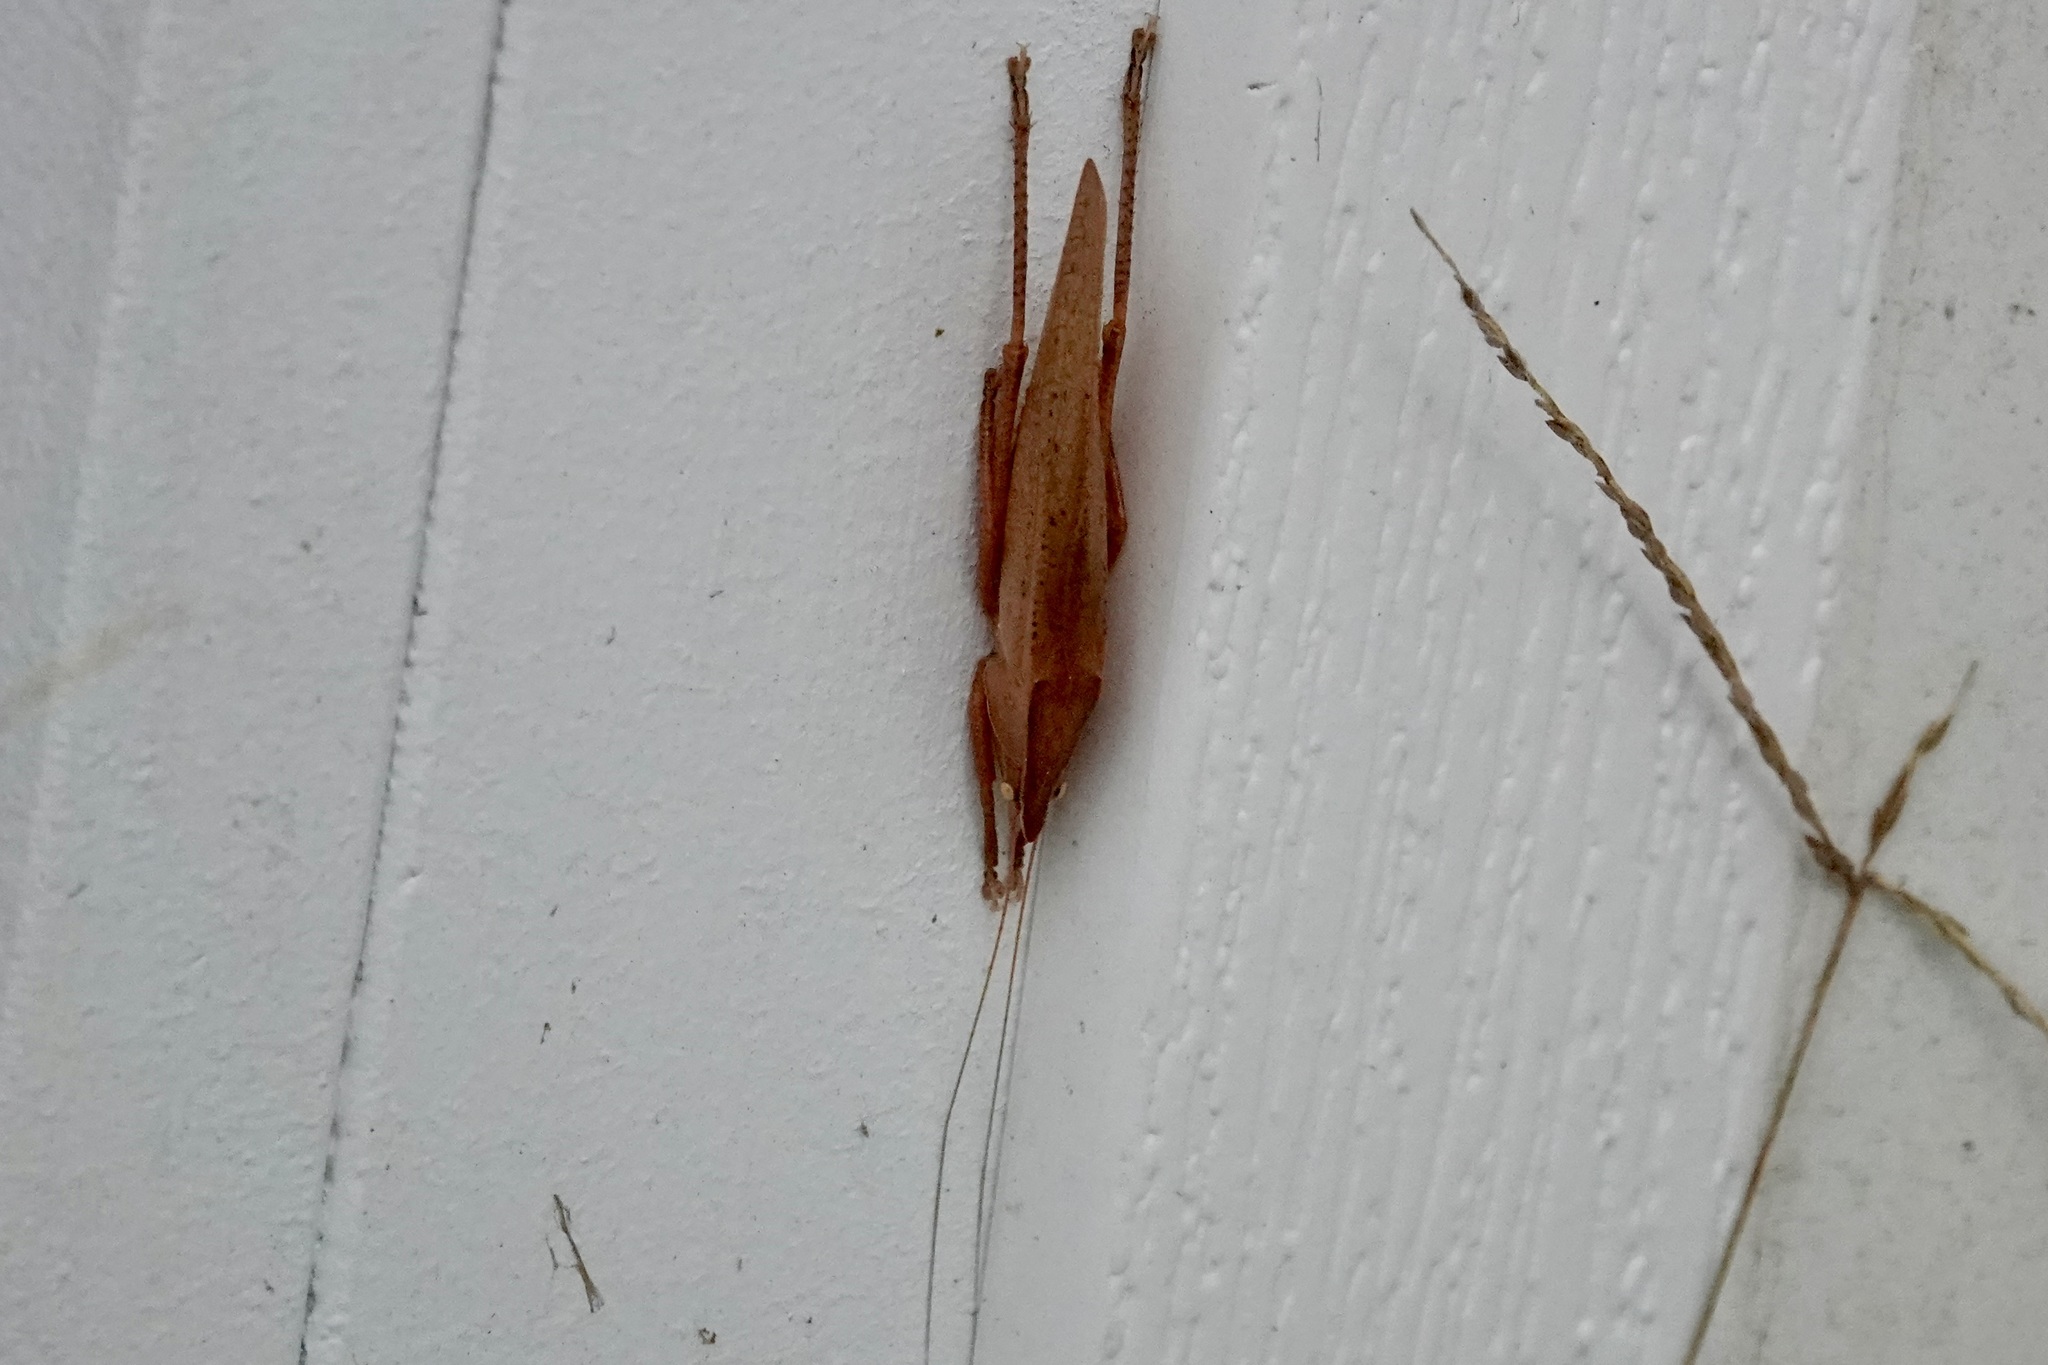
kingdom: Animalia
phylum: Arthropoda
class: Insecta
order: Orthoptera
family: Tettigoniidae
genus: Pyrgocorypha
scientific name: Pyrgocorypha uncinata
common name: Hook-faced conehead
